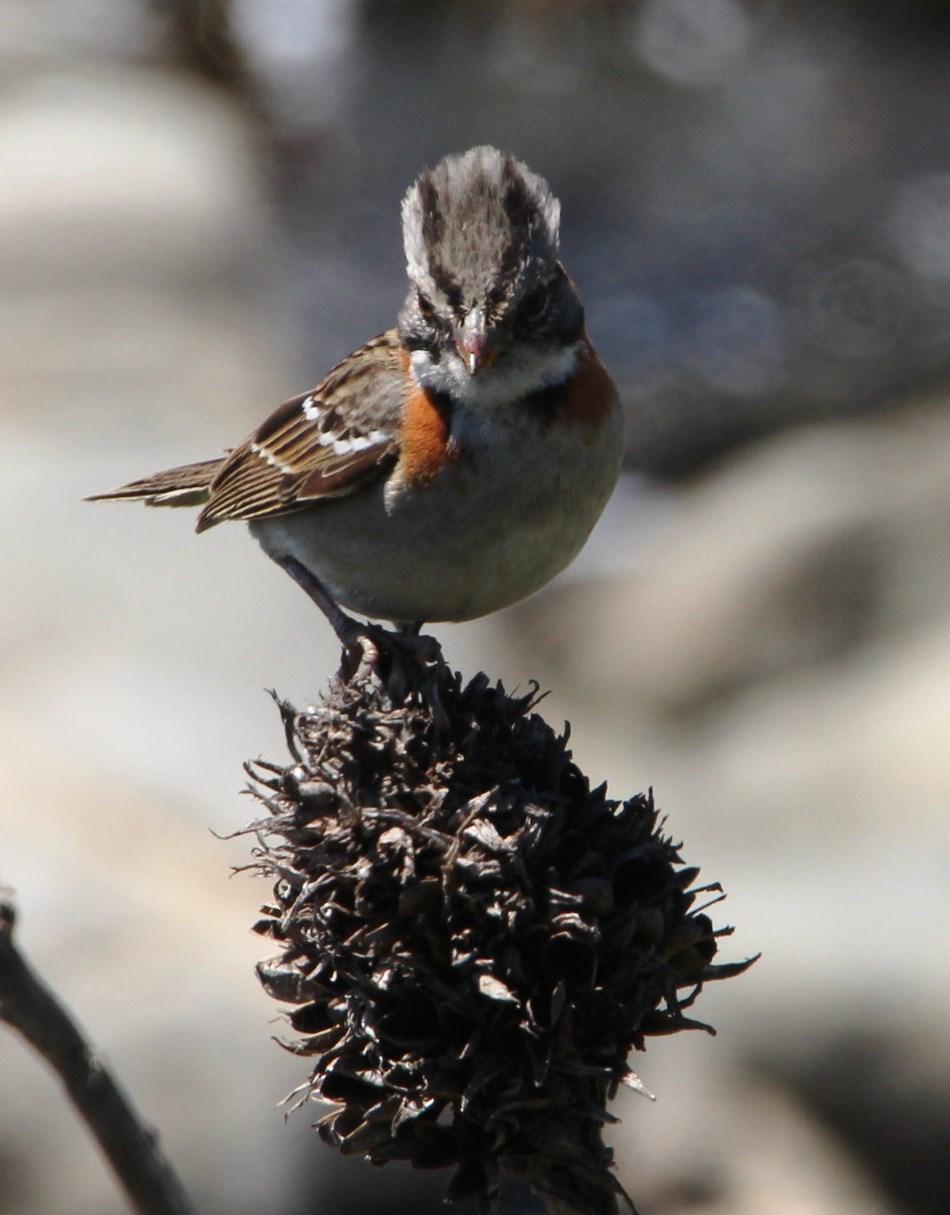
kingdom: Animalia
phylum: Chordata
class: Aves
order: Passeriformes
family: Passerellidae
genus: Zonotrichia
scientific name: Zonotrichia capensis
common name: Rufous-collared sparrow
